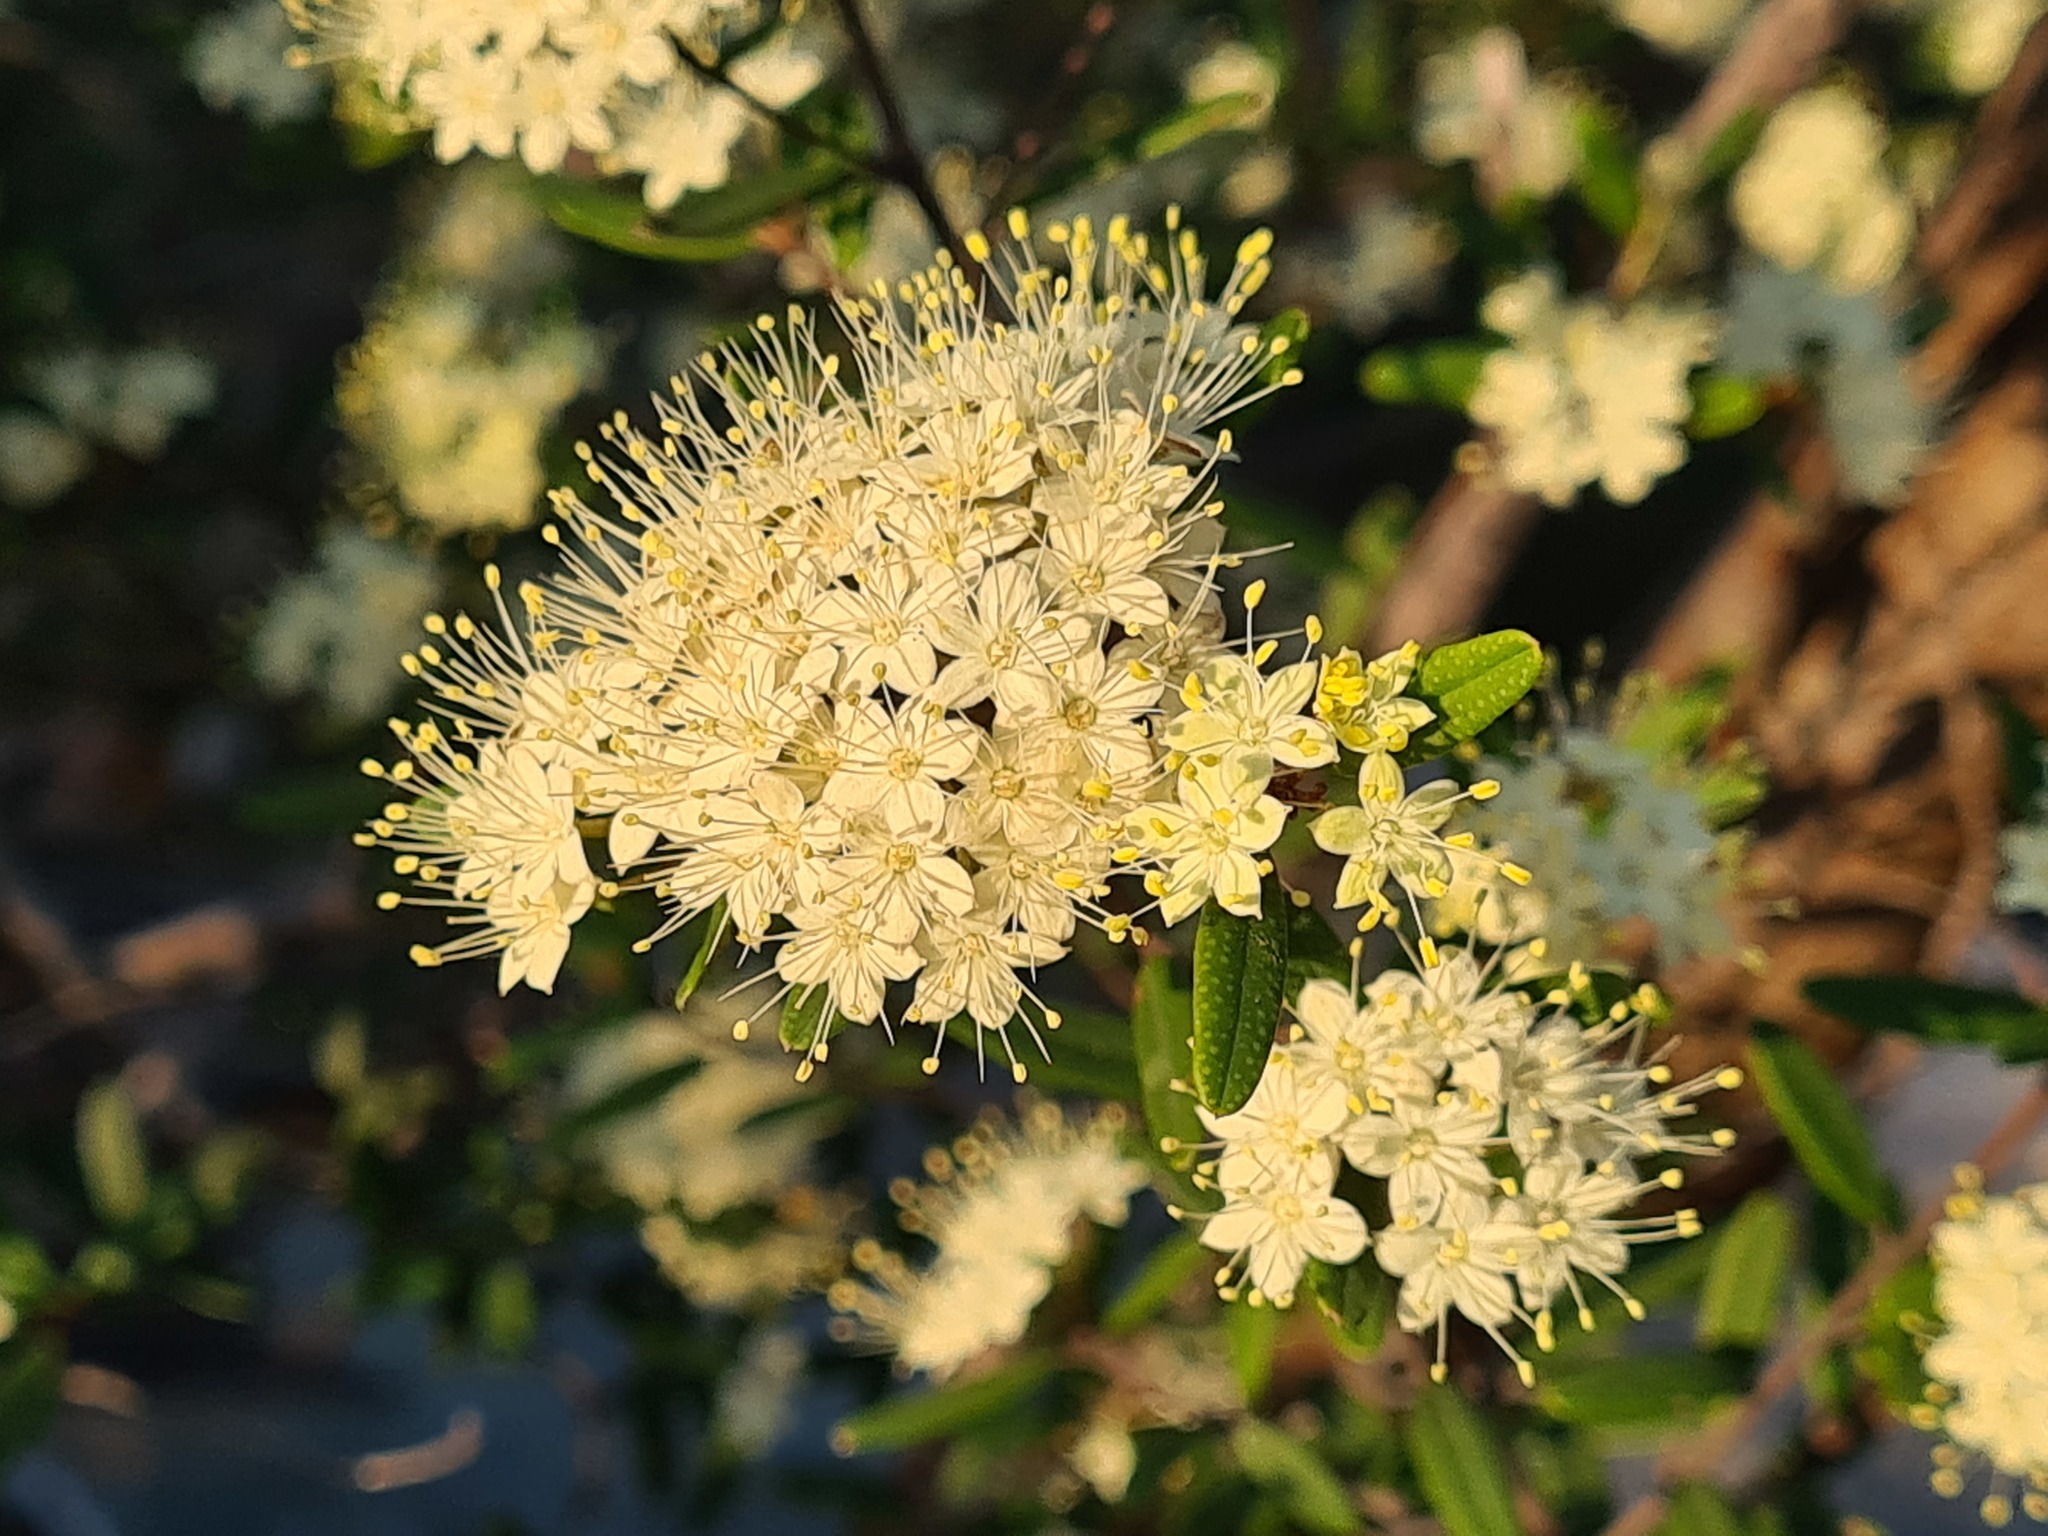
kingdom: Plantae
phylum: Tracheophyta
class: Magnoliopsida
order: Sapindales
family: Rutaceae
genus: Phebalium
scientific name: Phebalium squamulosum
